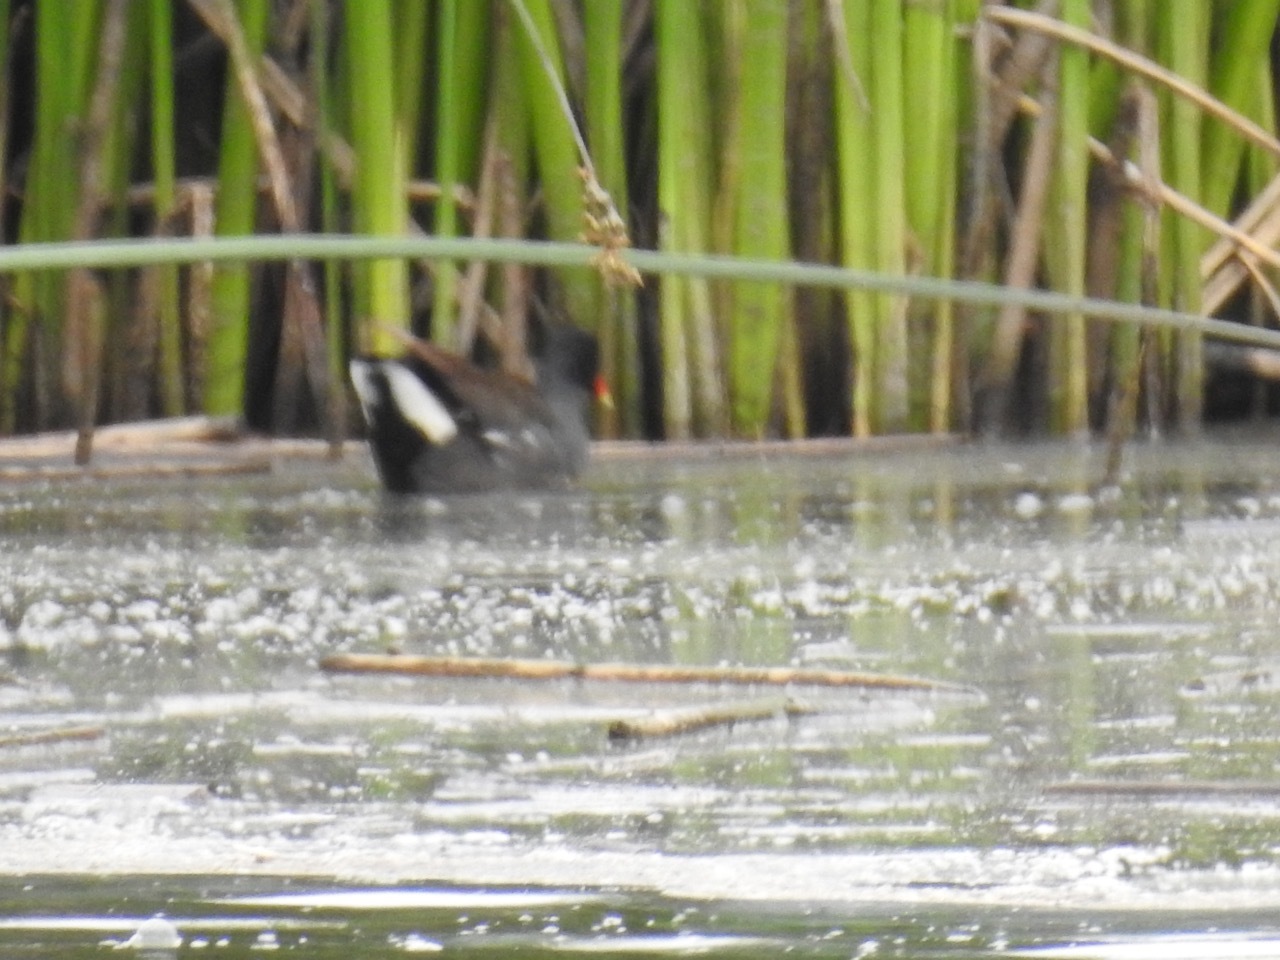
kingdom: Animalia
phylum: Chordata
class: Aves
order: Gruiformes
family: Rallidae
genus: Gallinula
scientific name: Gallinula chloropus
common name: Common moorhen
